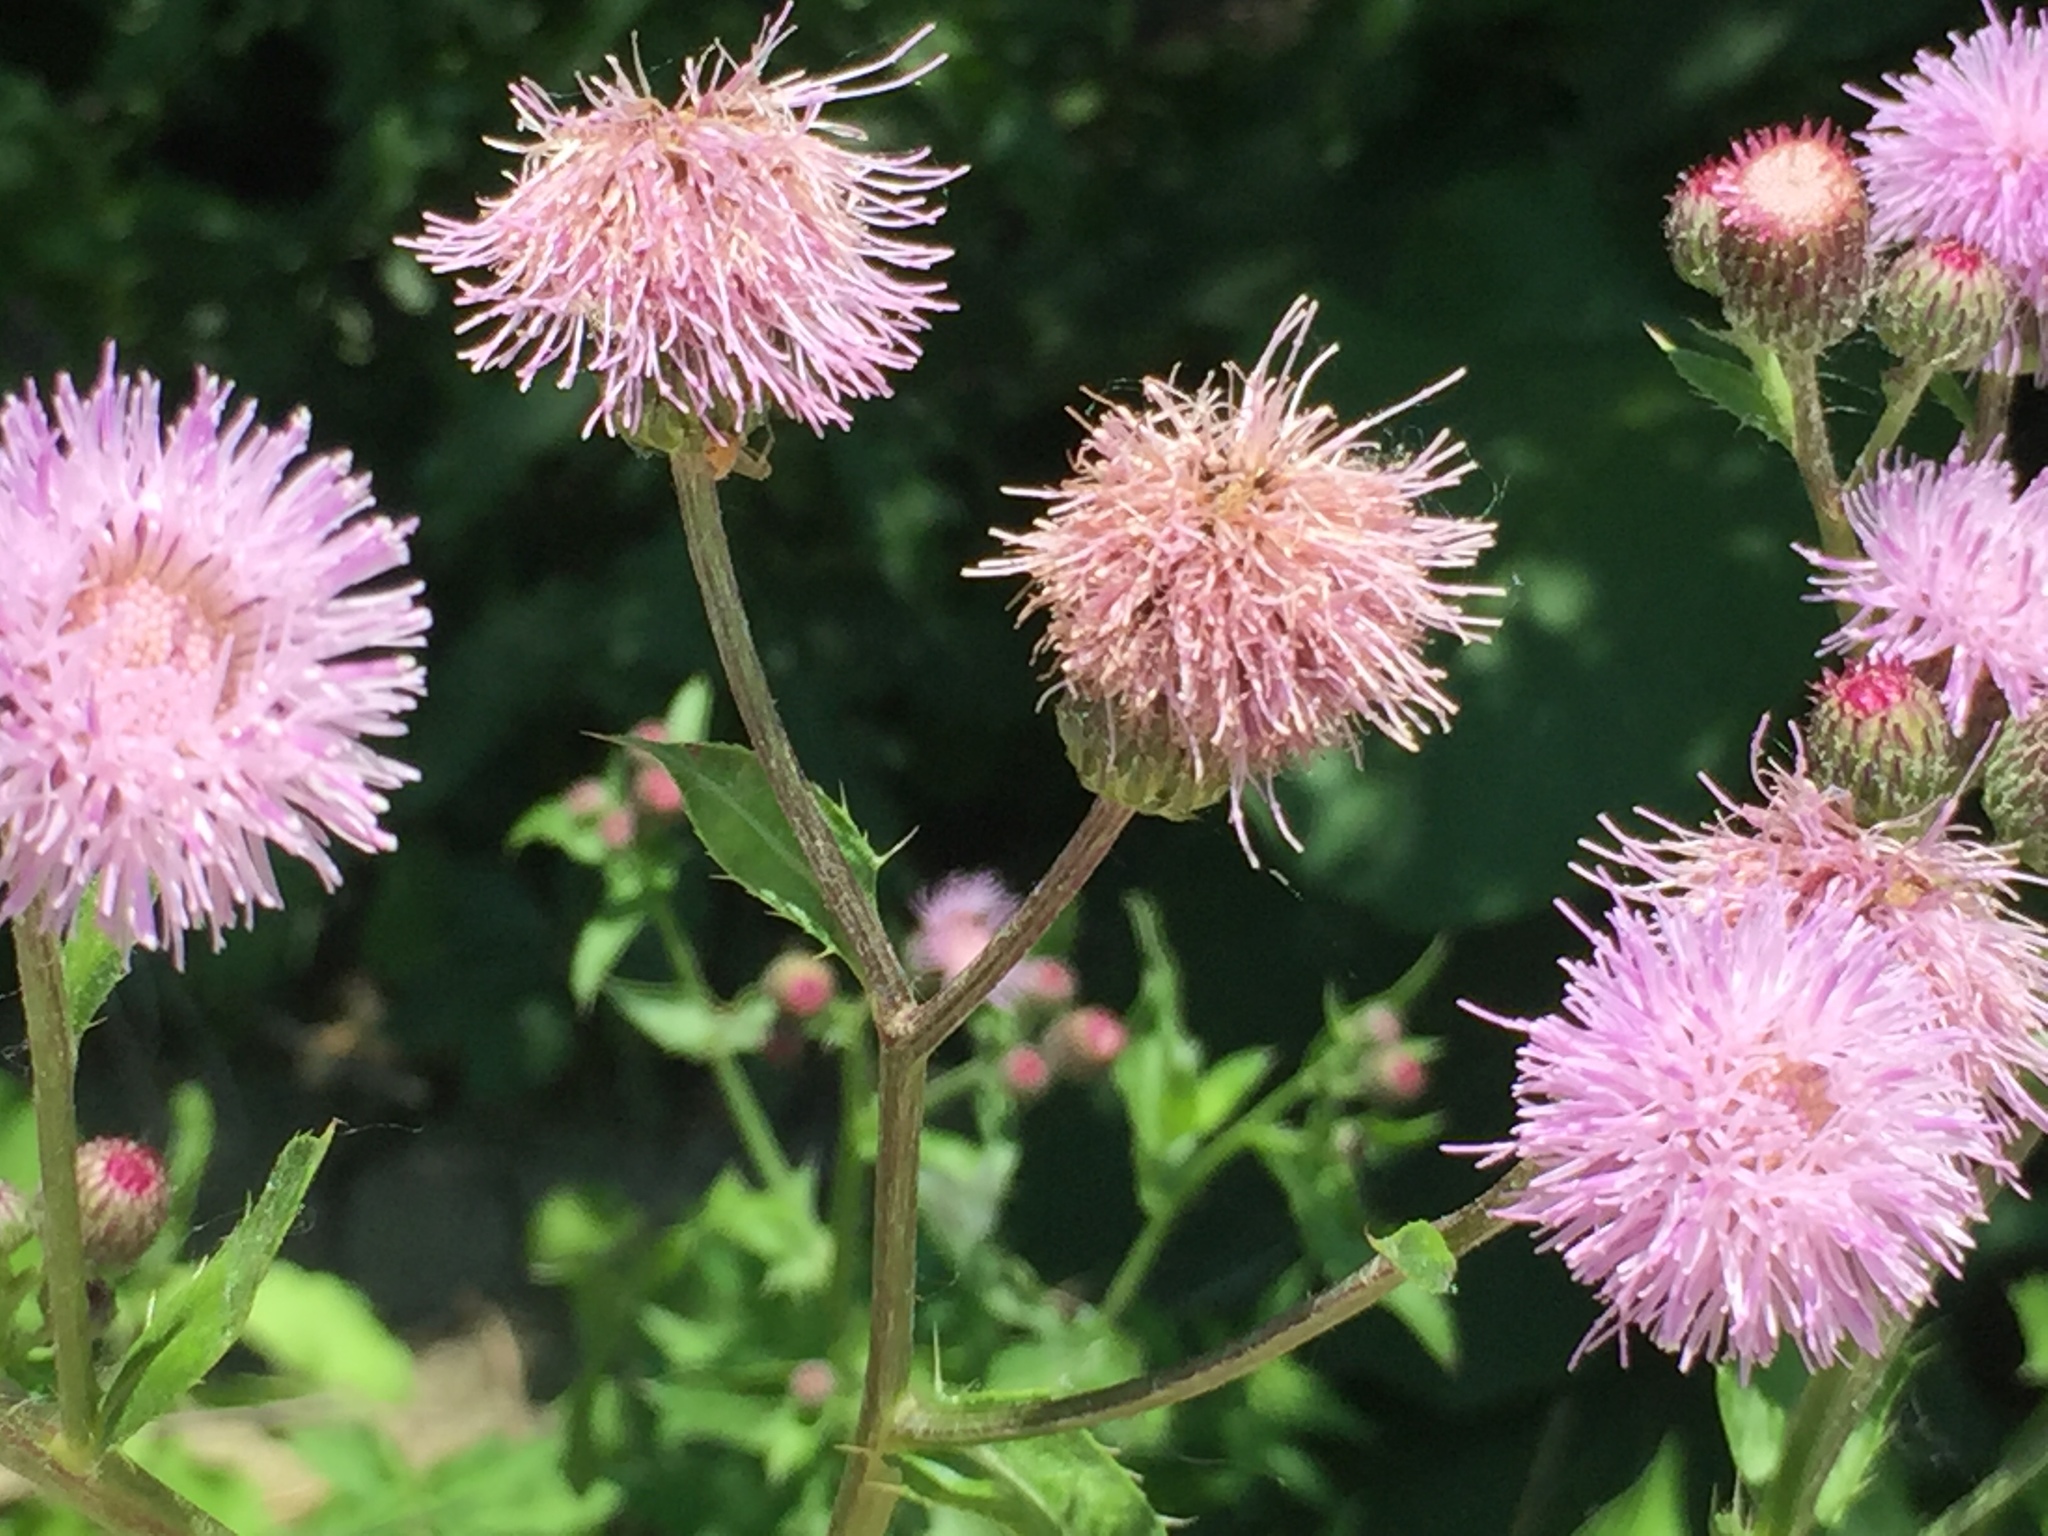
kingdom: Plantae
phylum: Tracheophyta
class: Magnoliopsida
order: Asterales
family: Asteraceae
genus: Cirsium
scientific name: Cirsium arvense
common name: Creeping thistle
